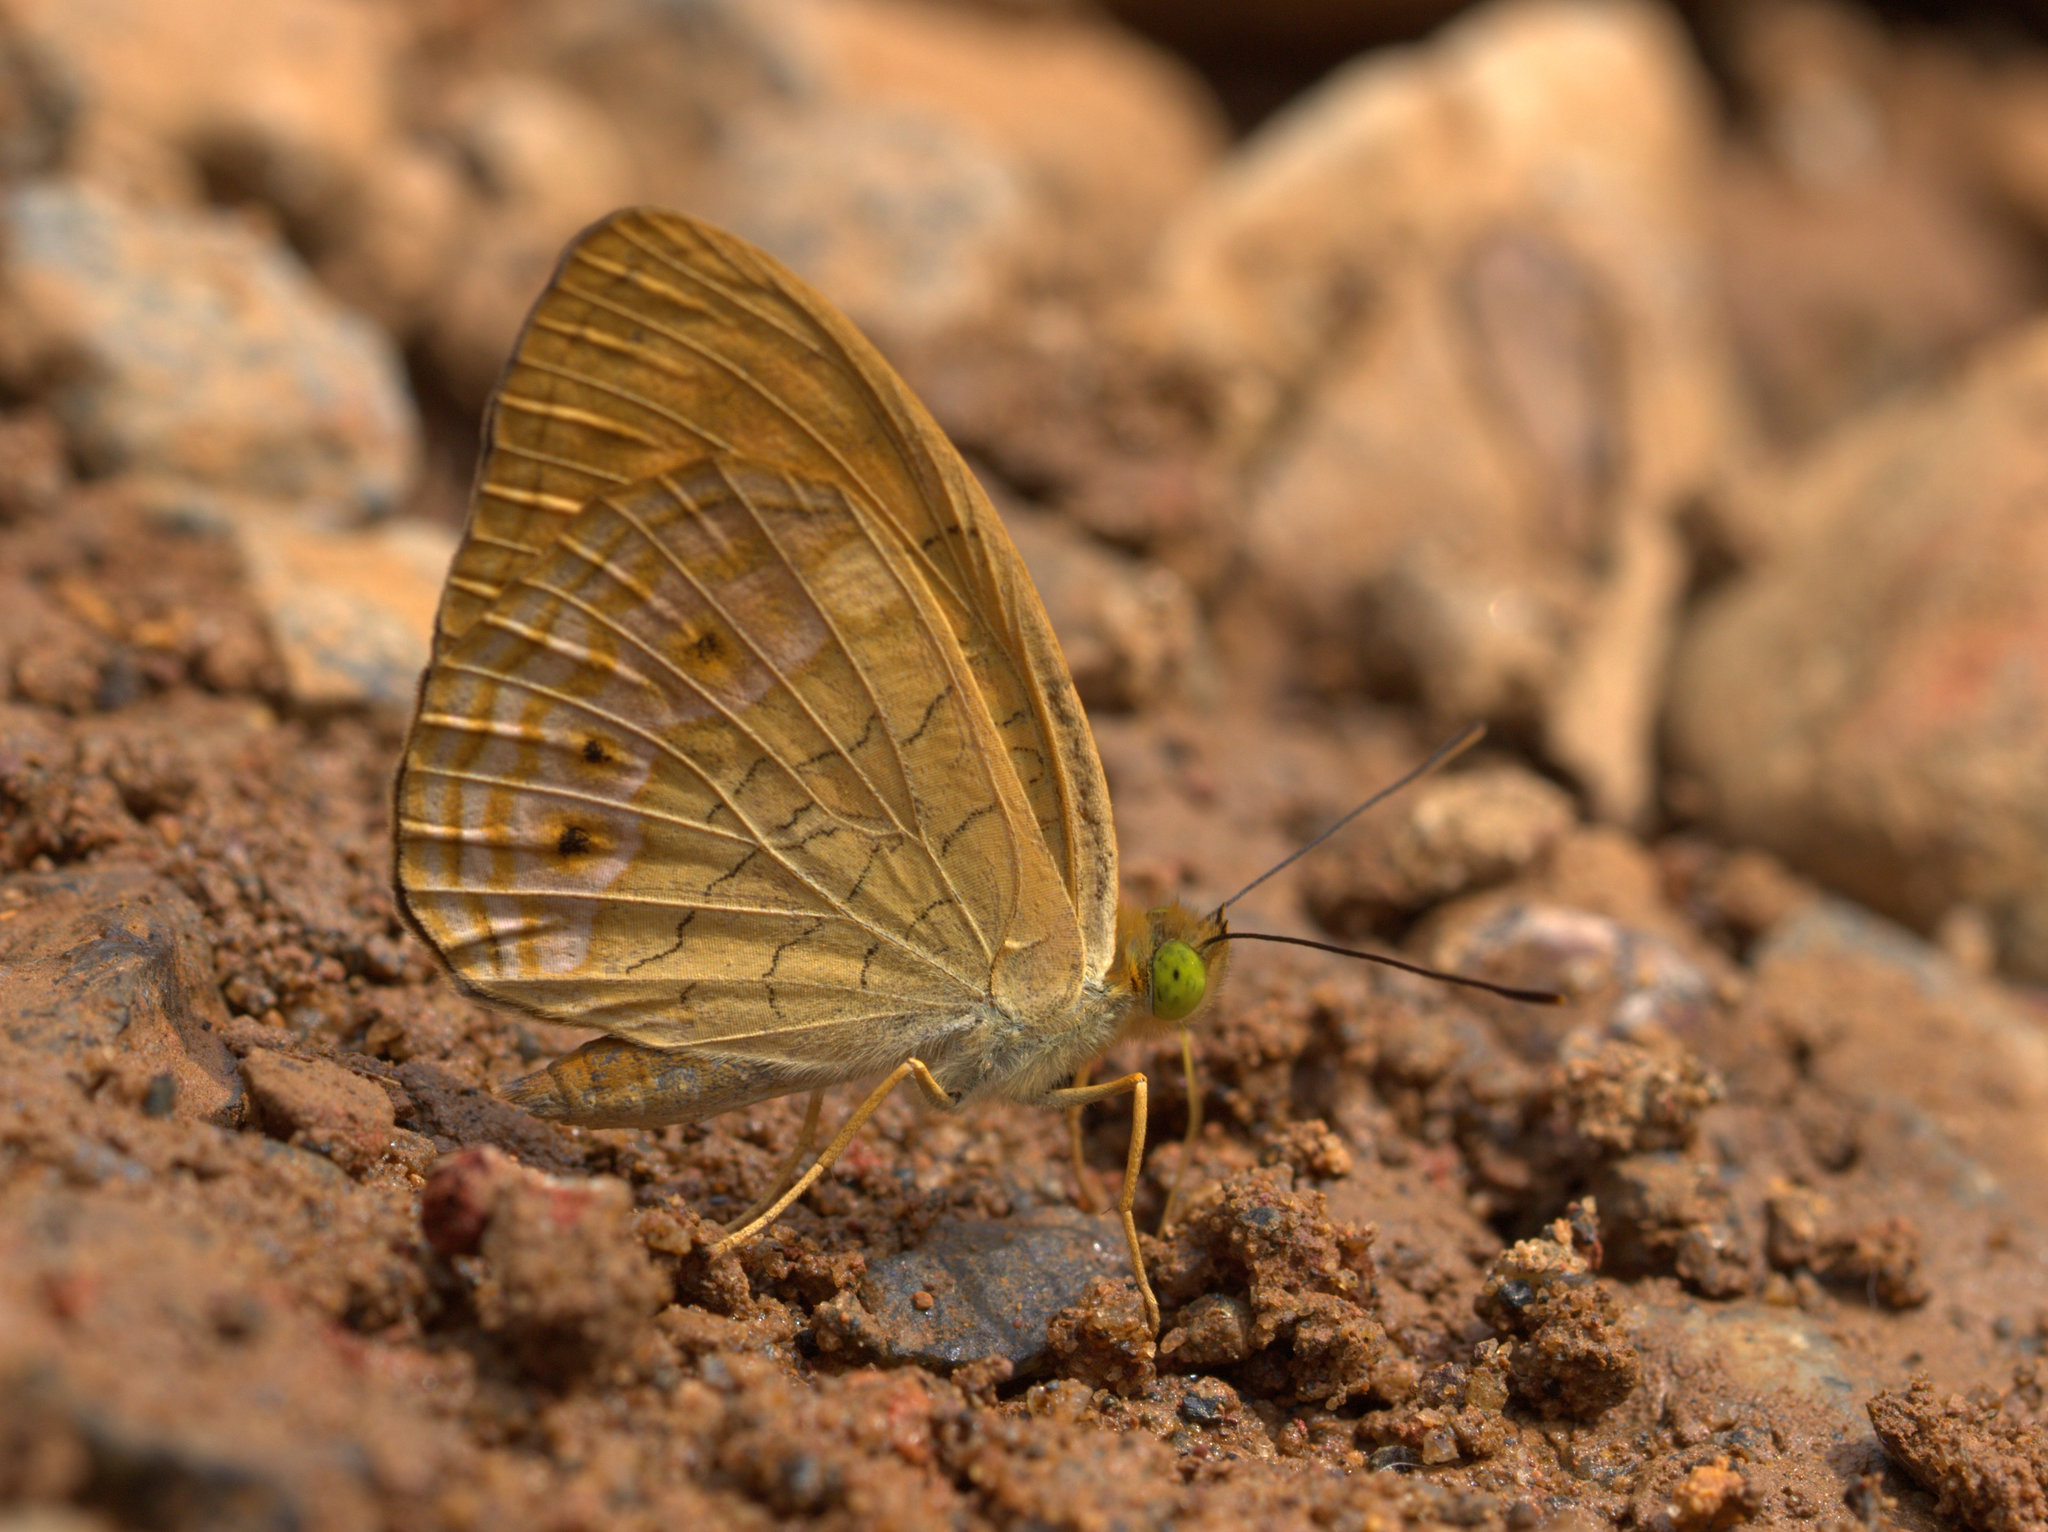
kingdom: Animalia
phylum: Arthropoda
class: Insecta
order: Lepidoptera
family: Nymphalidae
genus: Phalanta
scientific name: Phalanta alcippe
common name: Small leopard
